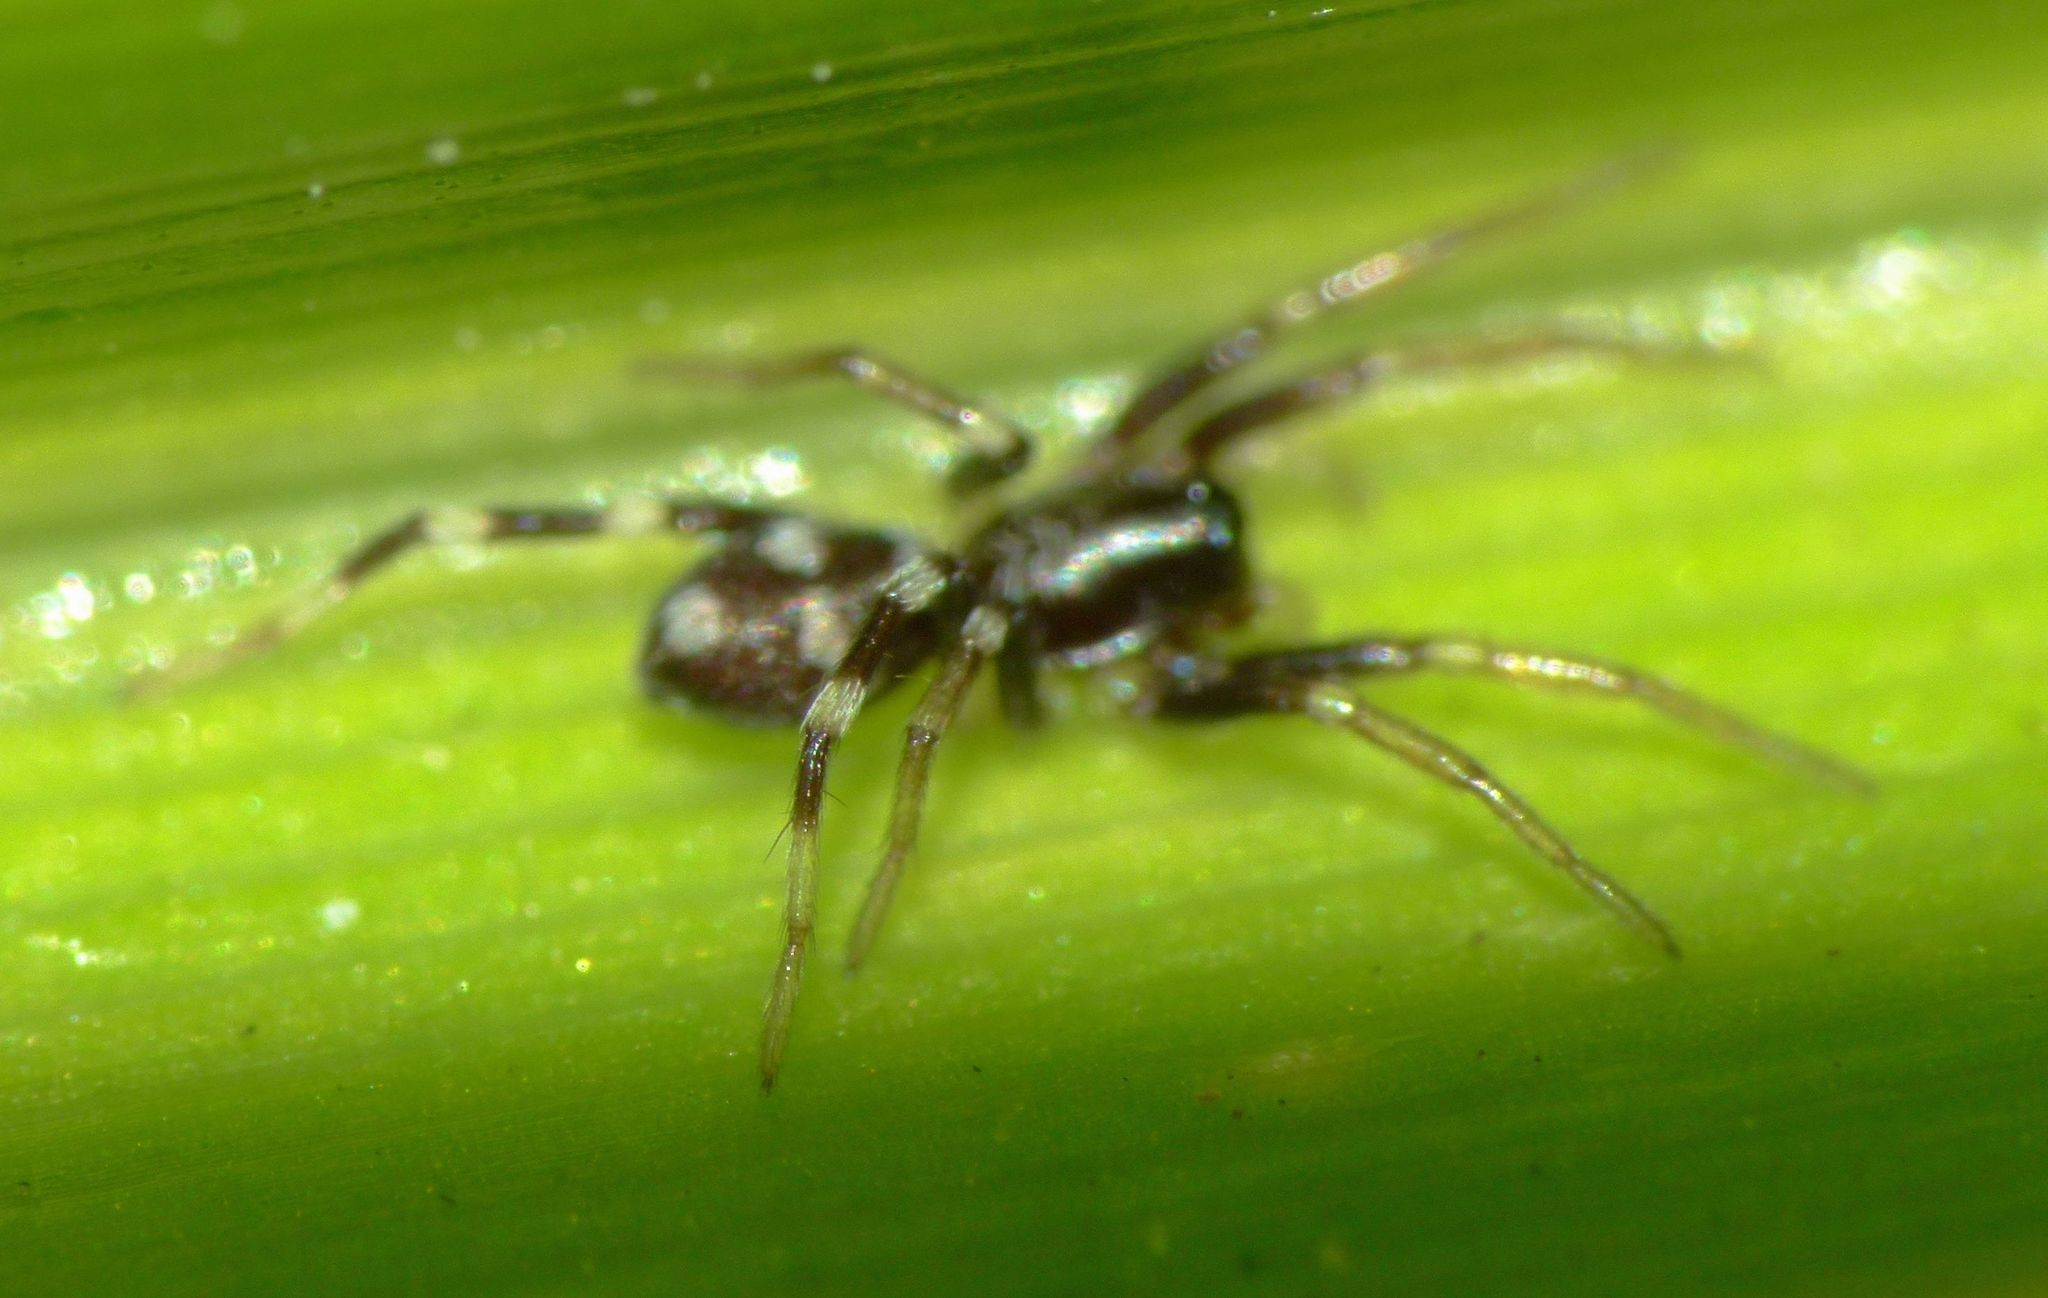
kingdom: Animalia
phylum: Arthropoda
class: Arachnida
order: Araneae
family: Corinnidae
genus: Nyssus
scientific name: Nyssus coloripes
